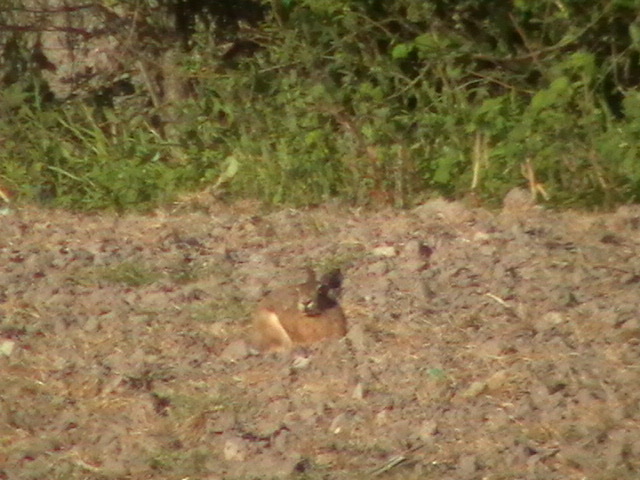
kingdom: Animalia
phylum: Chordata
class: Mammalia
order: Lagomorpha
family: Leporidae
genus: Lepus
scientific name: Lepus europaeus
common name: European hare
